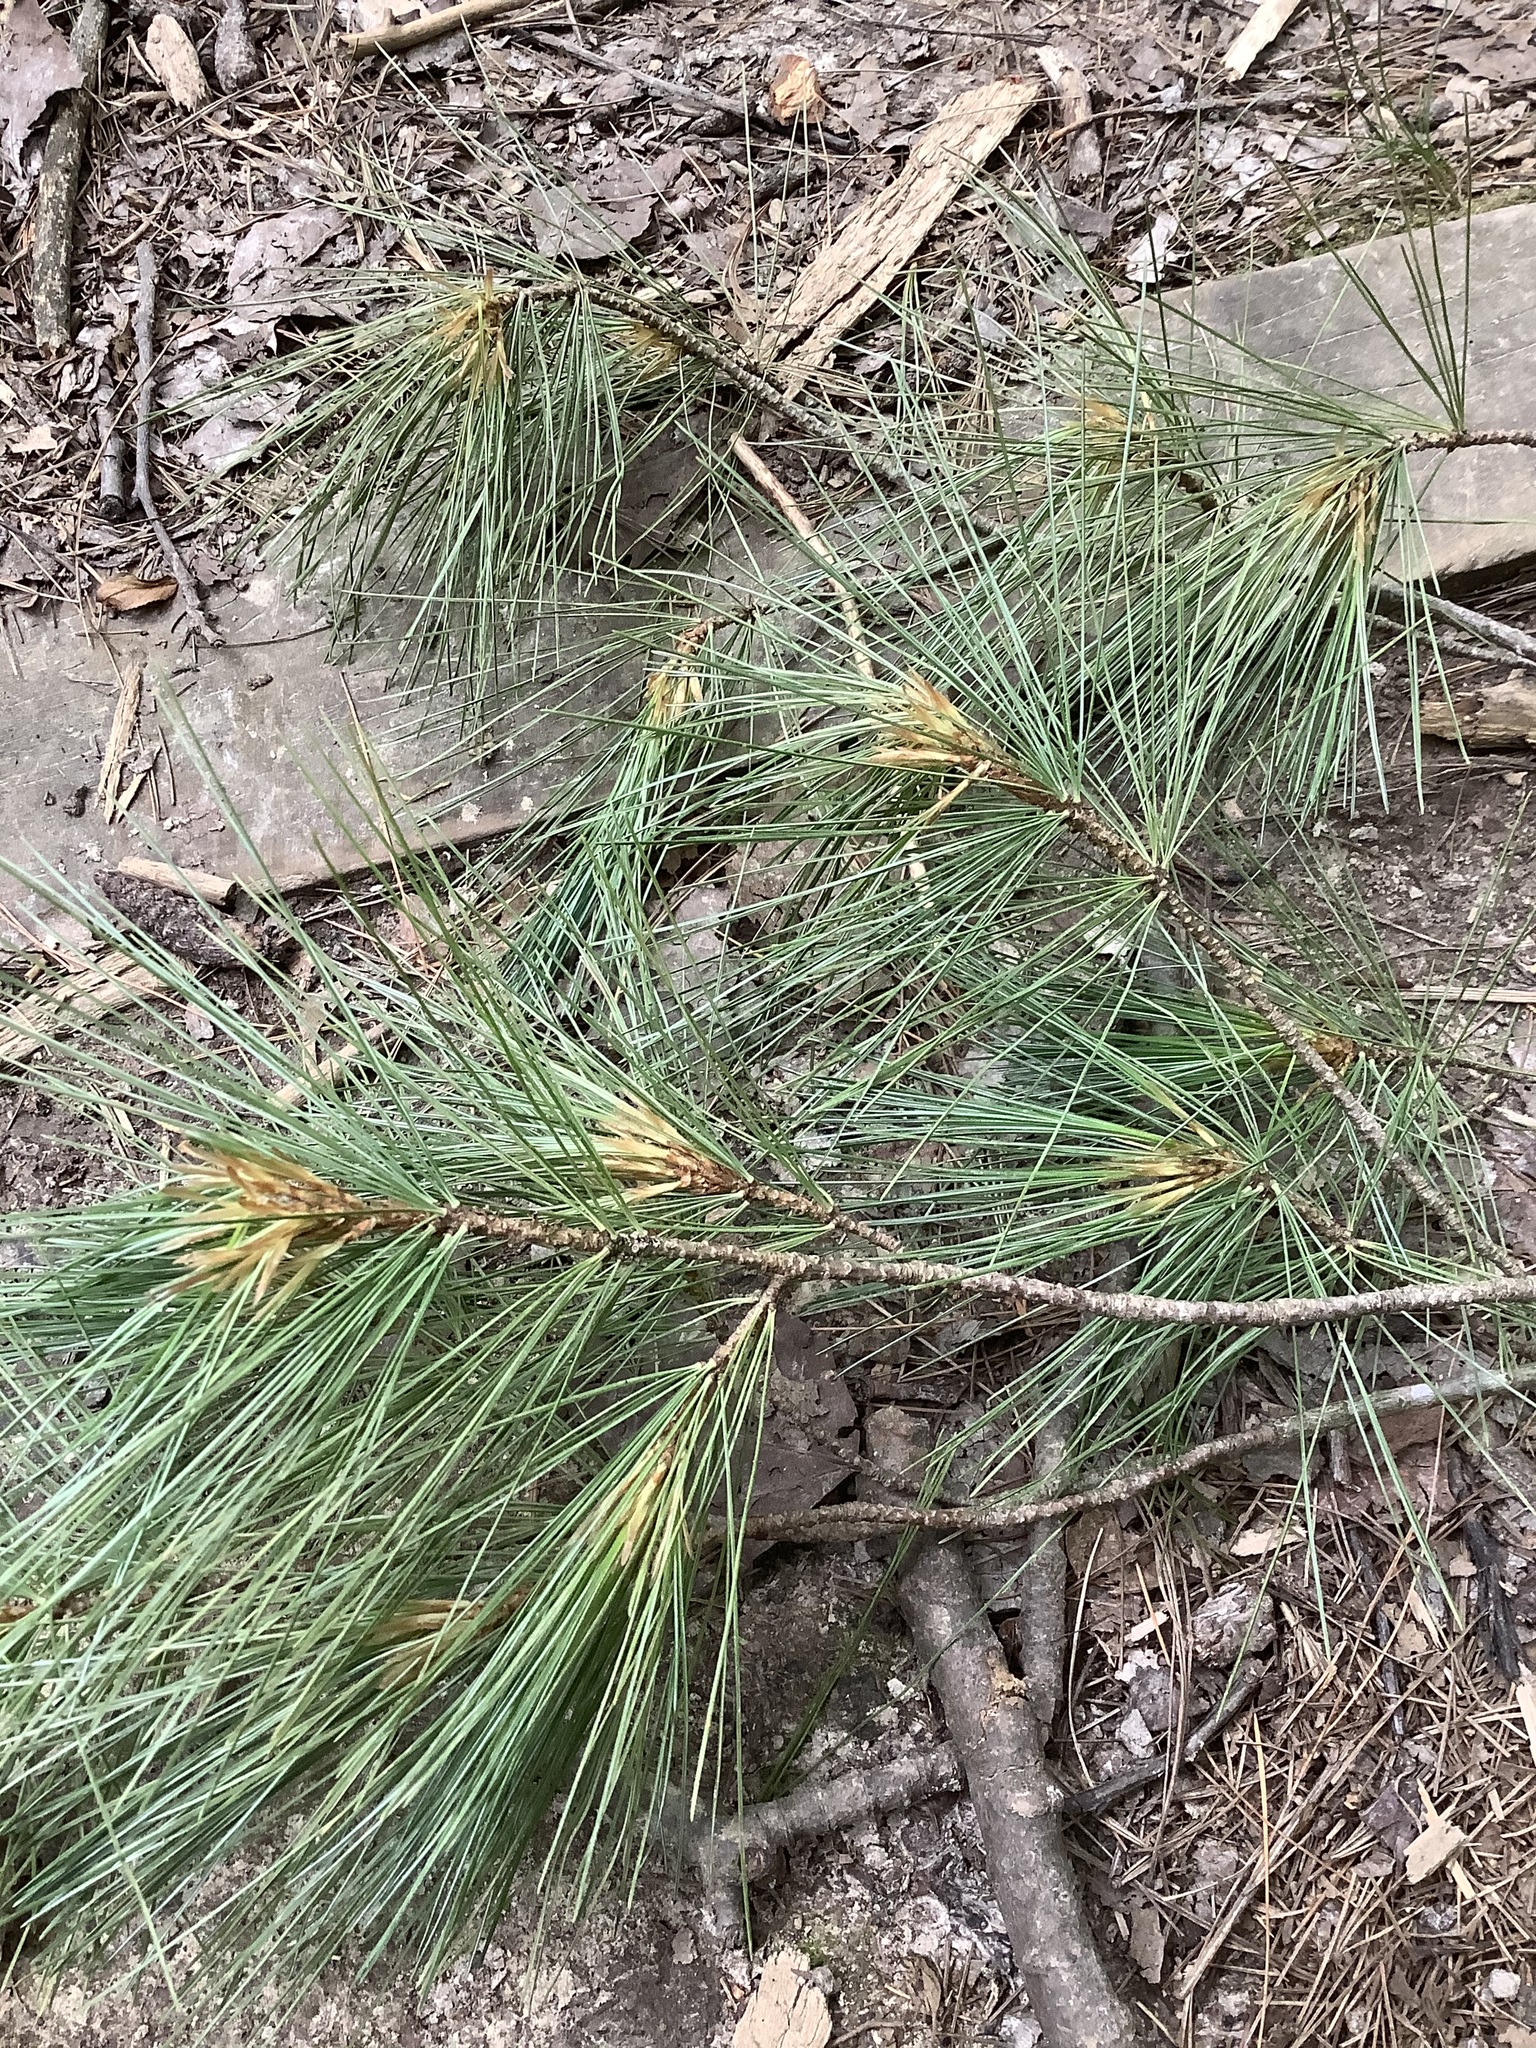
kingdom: Plantae
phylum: Tracheophyta
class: Pinopsida
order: Pinales
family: Pinaceae
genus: Pinus
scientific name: Pinus strobus
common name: Weymouth pine
